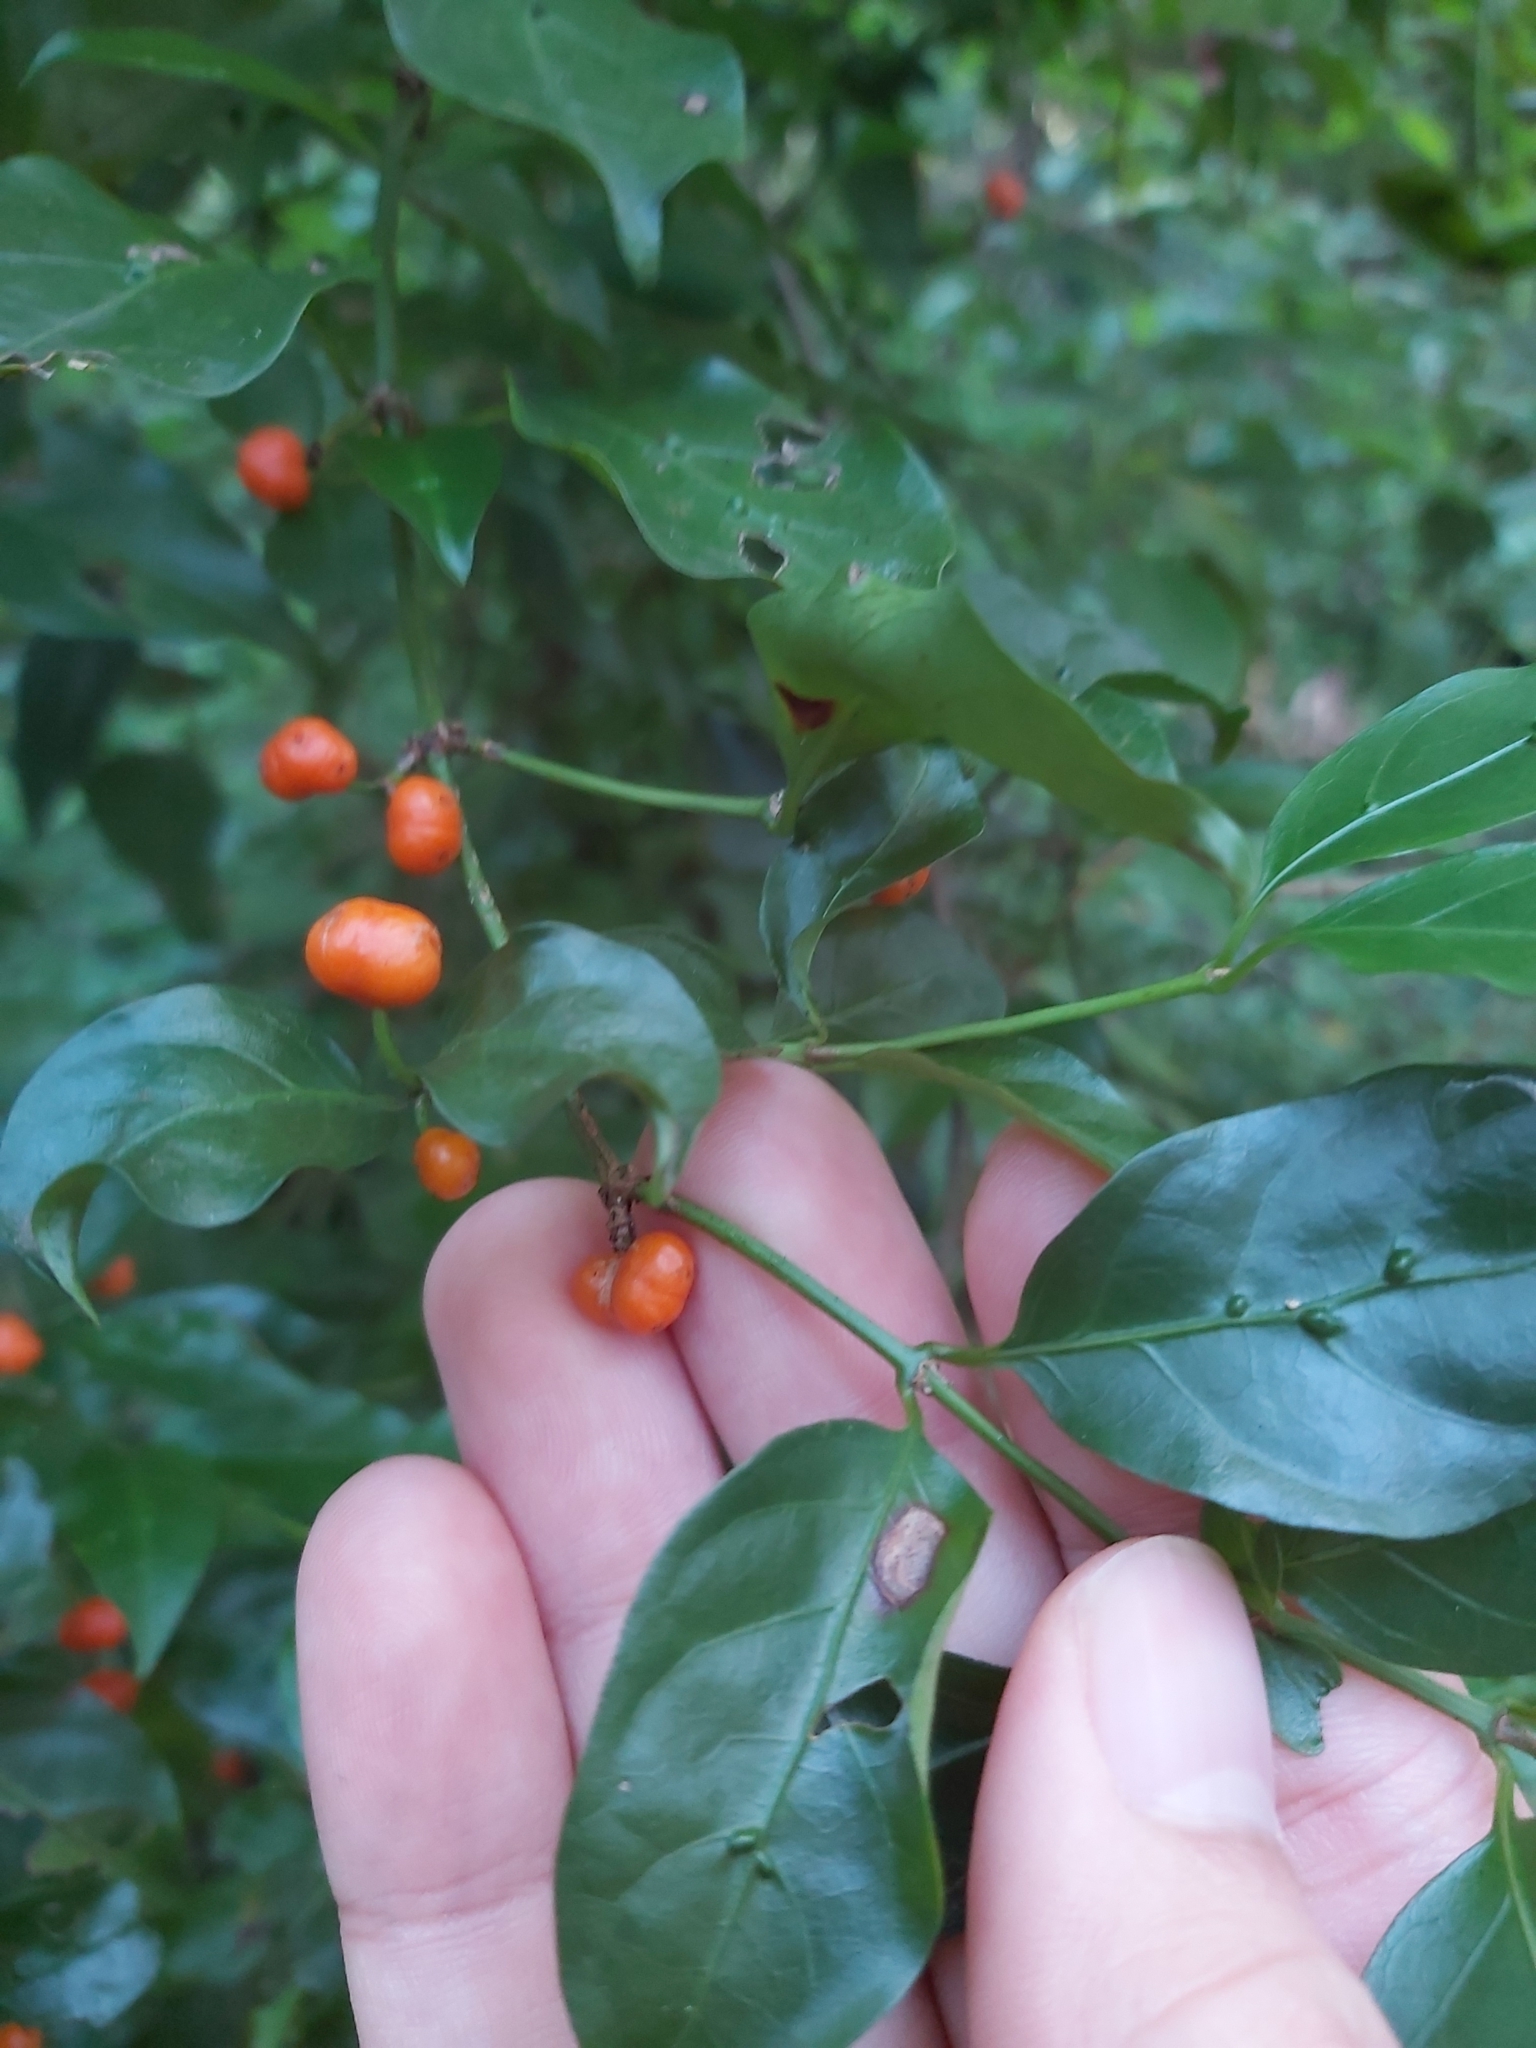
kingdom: Plantae
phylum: Tracheophyta
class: Magnoliopsida
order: Gentianales
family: Rubiaceae
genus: Gynochthodes
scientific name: Gynochthodes jasminoides
